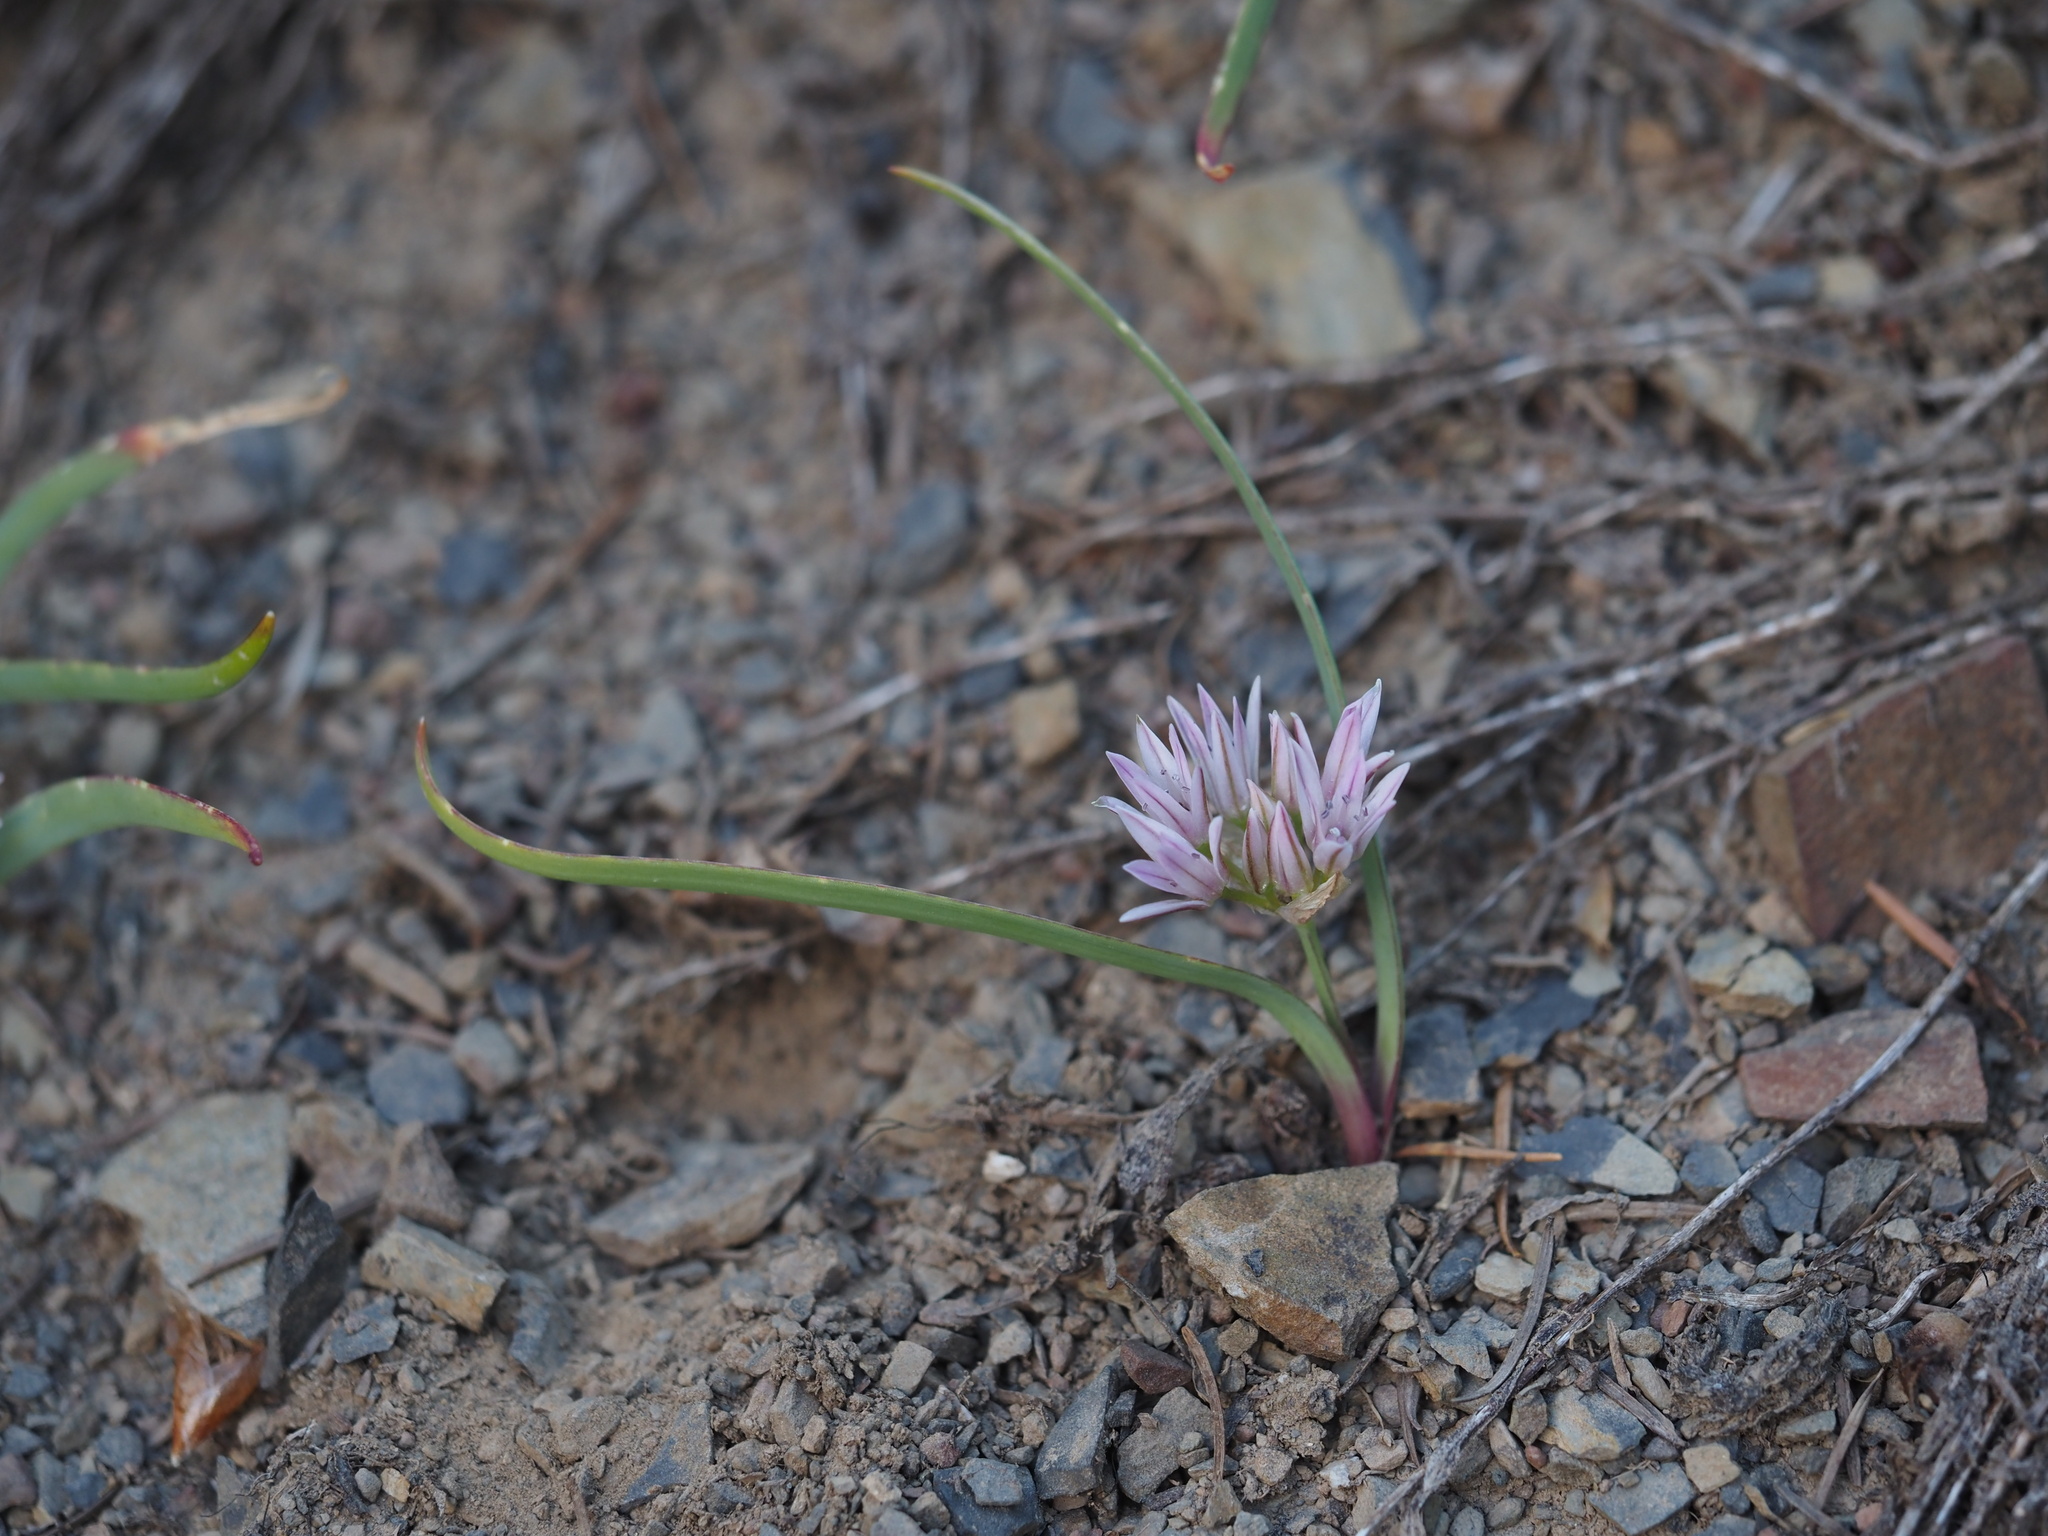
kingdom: Plantae
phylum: Tracheophyta
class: Liliopsida
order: Asparagales
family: Amaryllidaceae
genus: Allium
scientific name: Allium crenulatum
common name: Olympic onion
